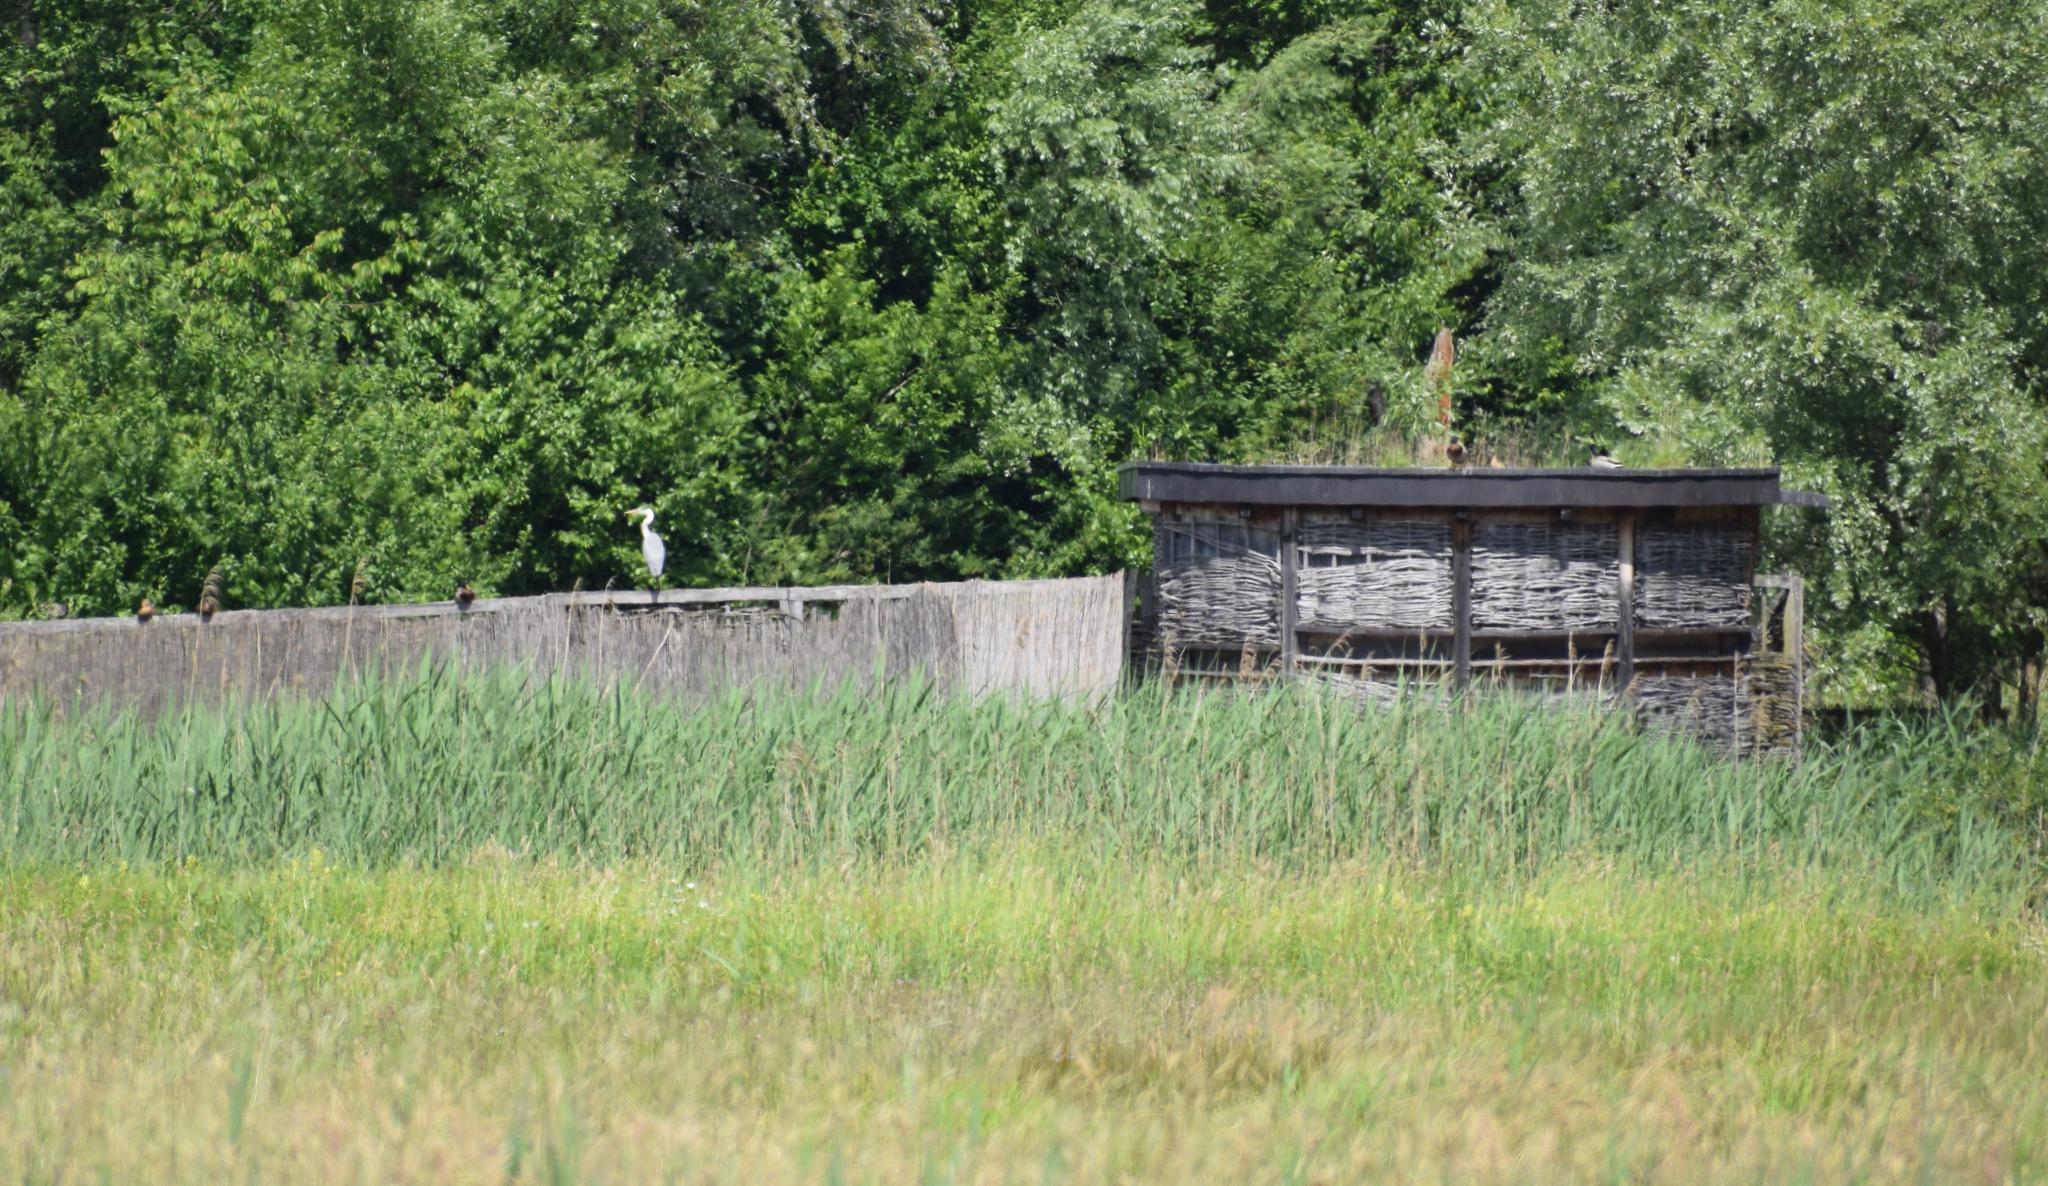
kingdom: Animalia
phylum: Chordata
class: Aves
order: Pelecaniformes
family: Ardeidae
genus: Ardea
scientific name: Ardea cinerea
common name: Grey heron
